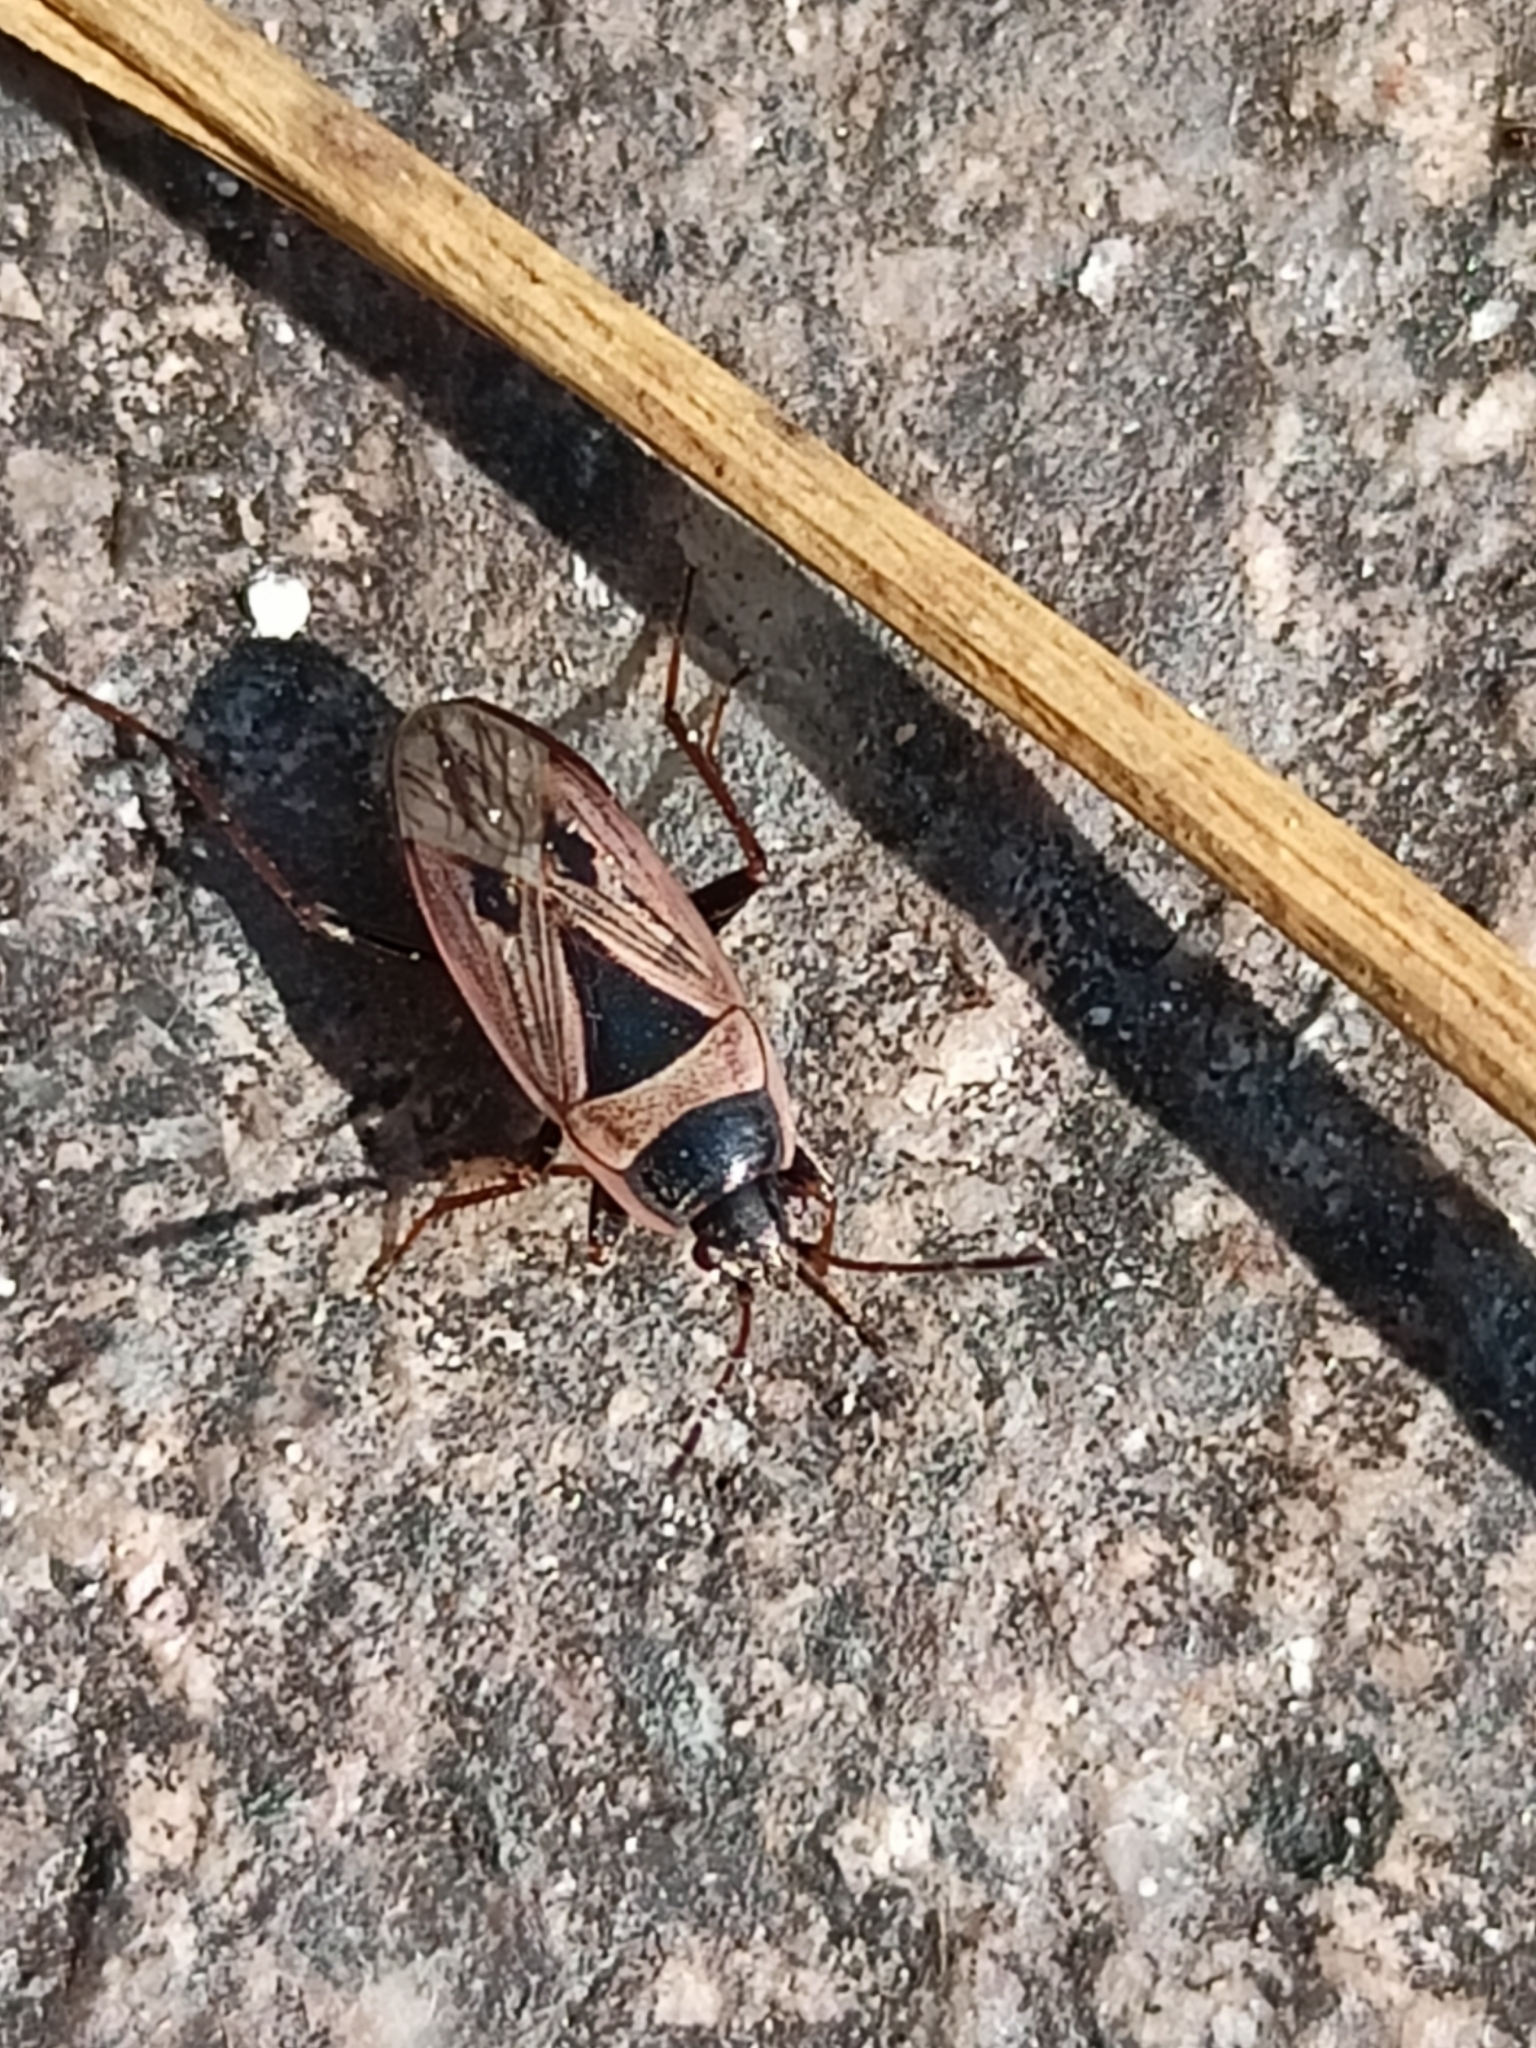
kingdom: Animalia
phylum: Arthropoda
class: Insecta
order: Hemiptera
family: Rhyparochromidae
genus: Xanthochilus
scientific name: Xanthochilus quadratus
